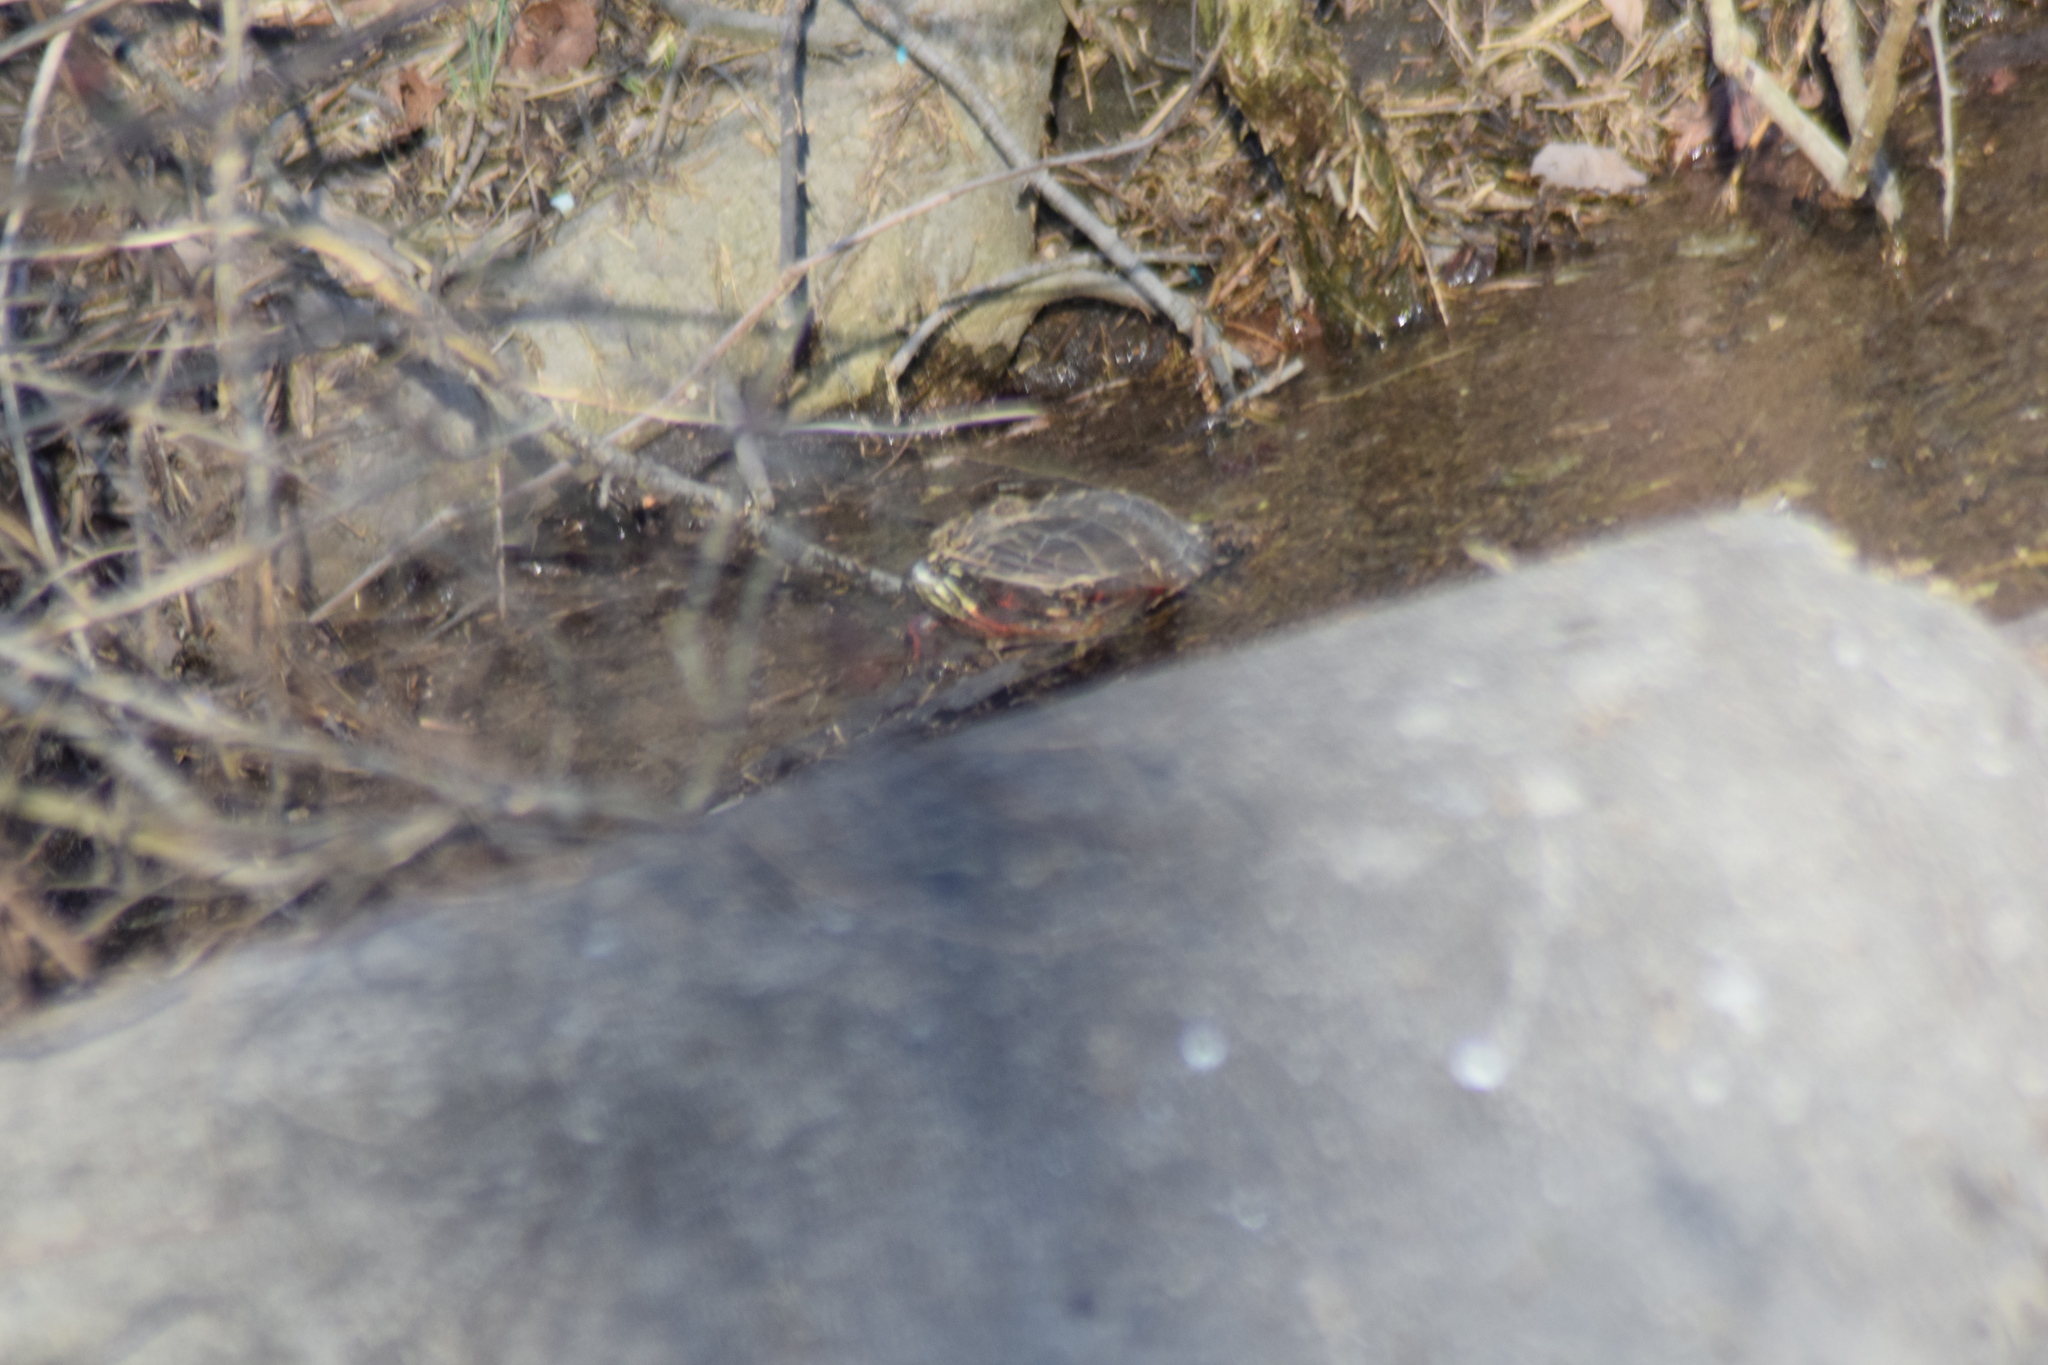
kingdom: Animalia
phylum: Chordata
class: Testudines
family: Emydidae
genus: Chrysemys
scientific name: Chrysemys picta
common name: Painted turtle
